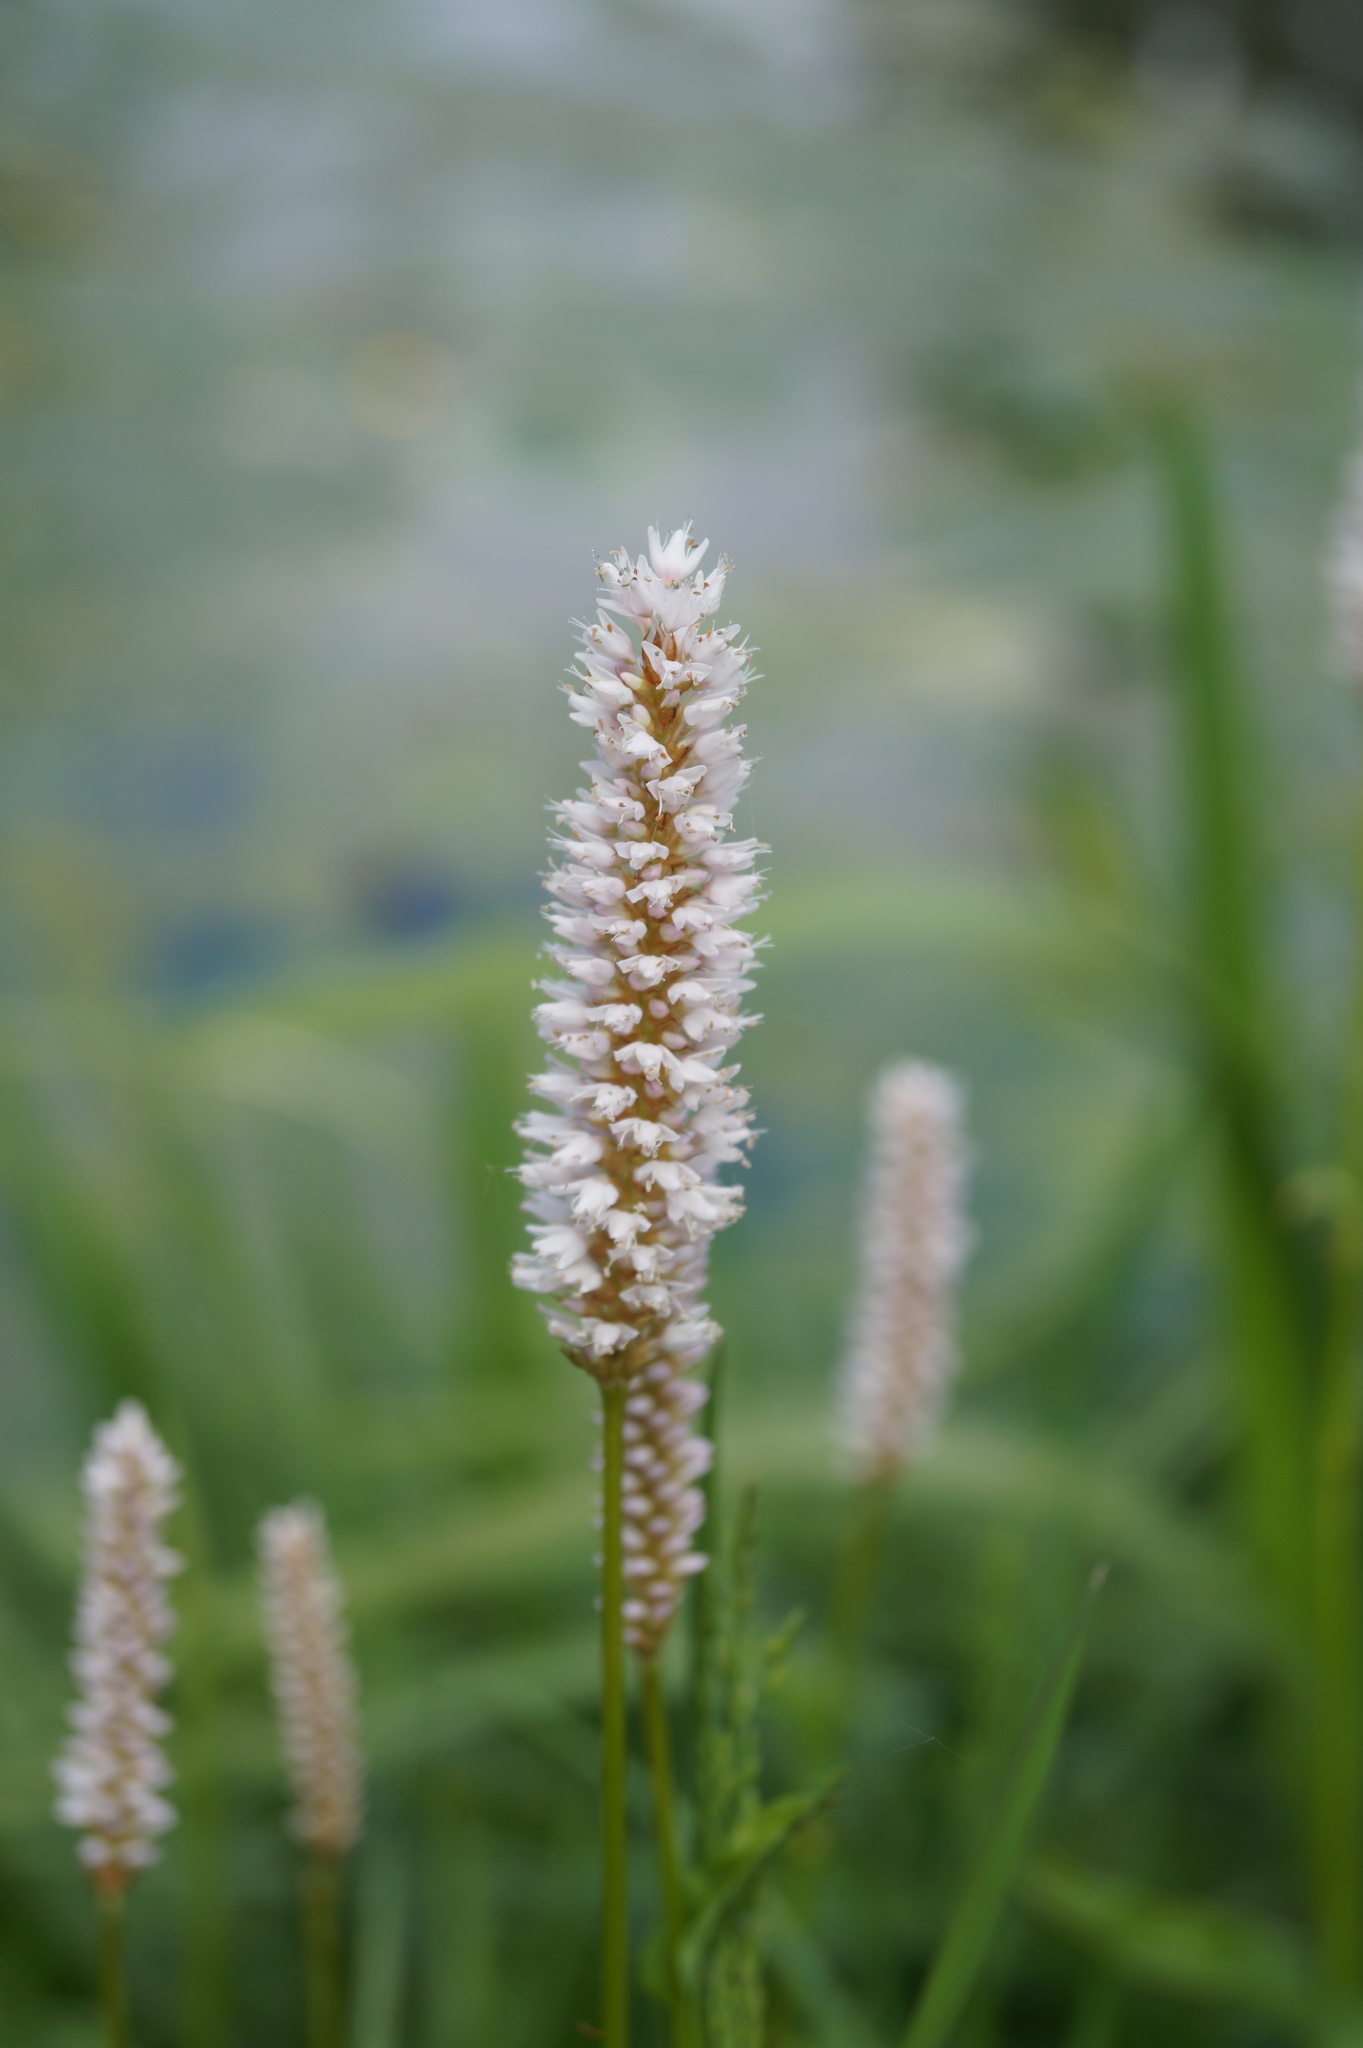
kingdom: Plantae
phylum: Tracheophyta
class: Magnoliopsida
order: Caryophyllales
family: Polygonaceae
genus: Bistorta
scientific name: Bistorta officinalis
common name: Common bistort
